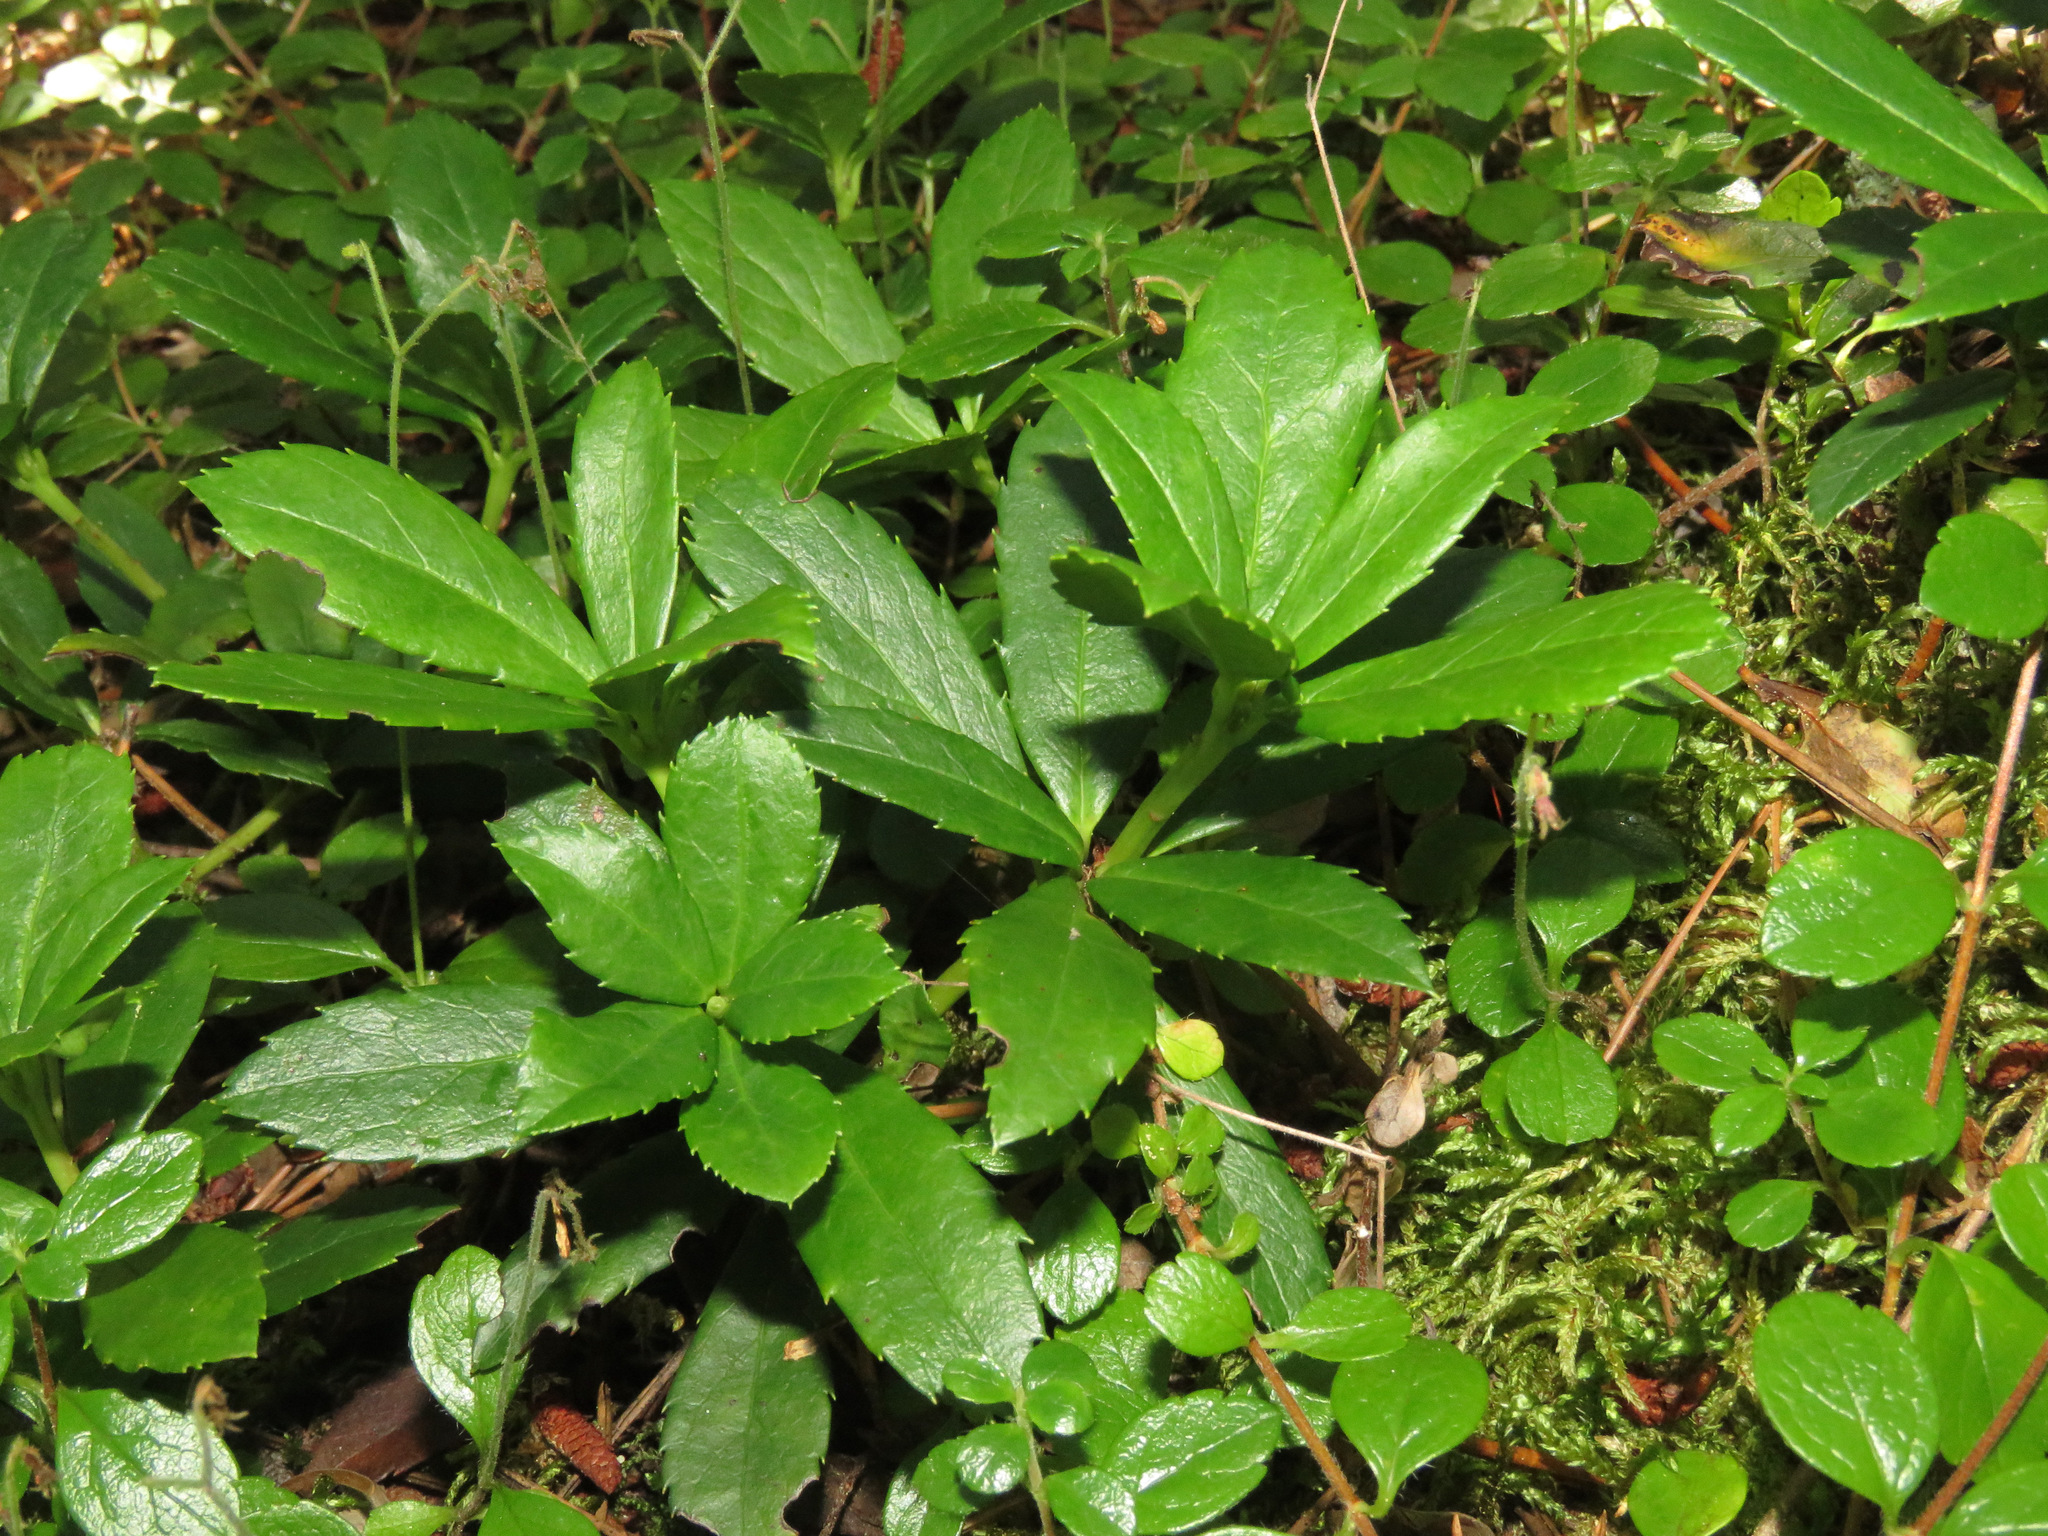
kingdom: Plantae
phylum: Tracheophyta
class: Magnoliopsida
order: Ericales
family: Ericaceae
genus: Chimaphila
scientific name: Chimaphila umbellata
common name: Pipsissewa
